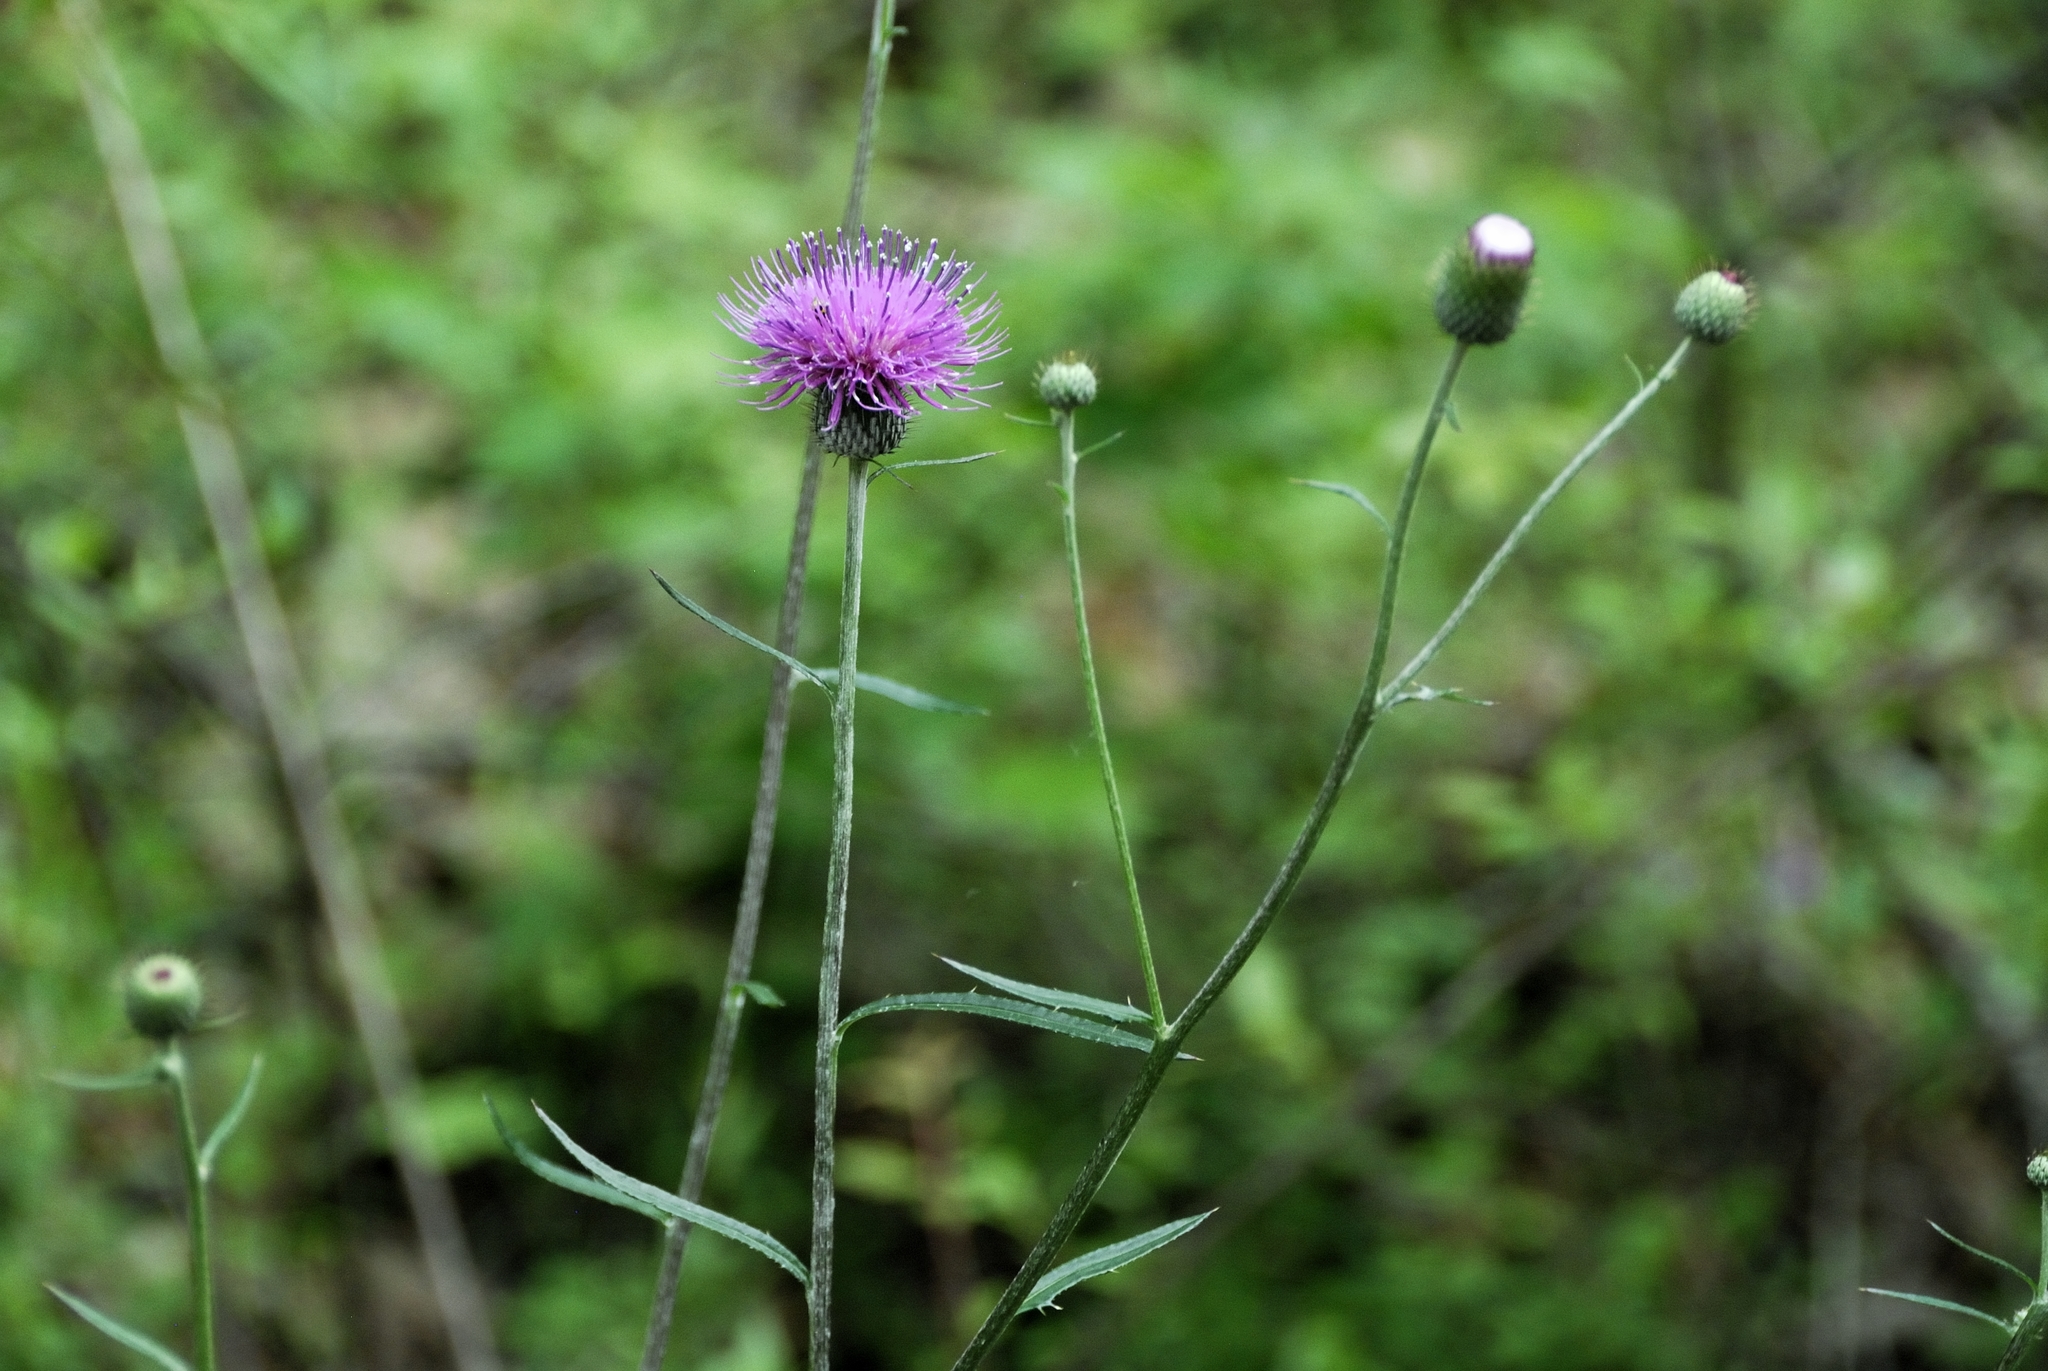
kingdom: Plantae
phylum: Tracheophyta
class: Magnoliopsida
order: Asterales
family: Asteraceae
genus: Cirsium
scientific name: Cirsium carolinianum
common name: Carolina thistle
